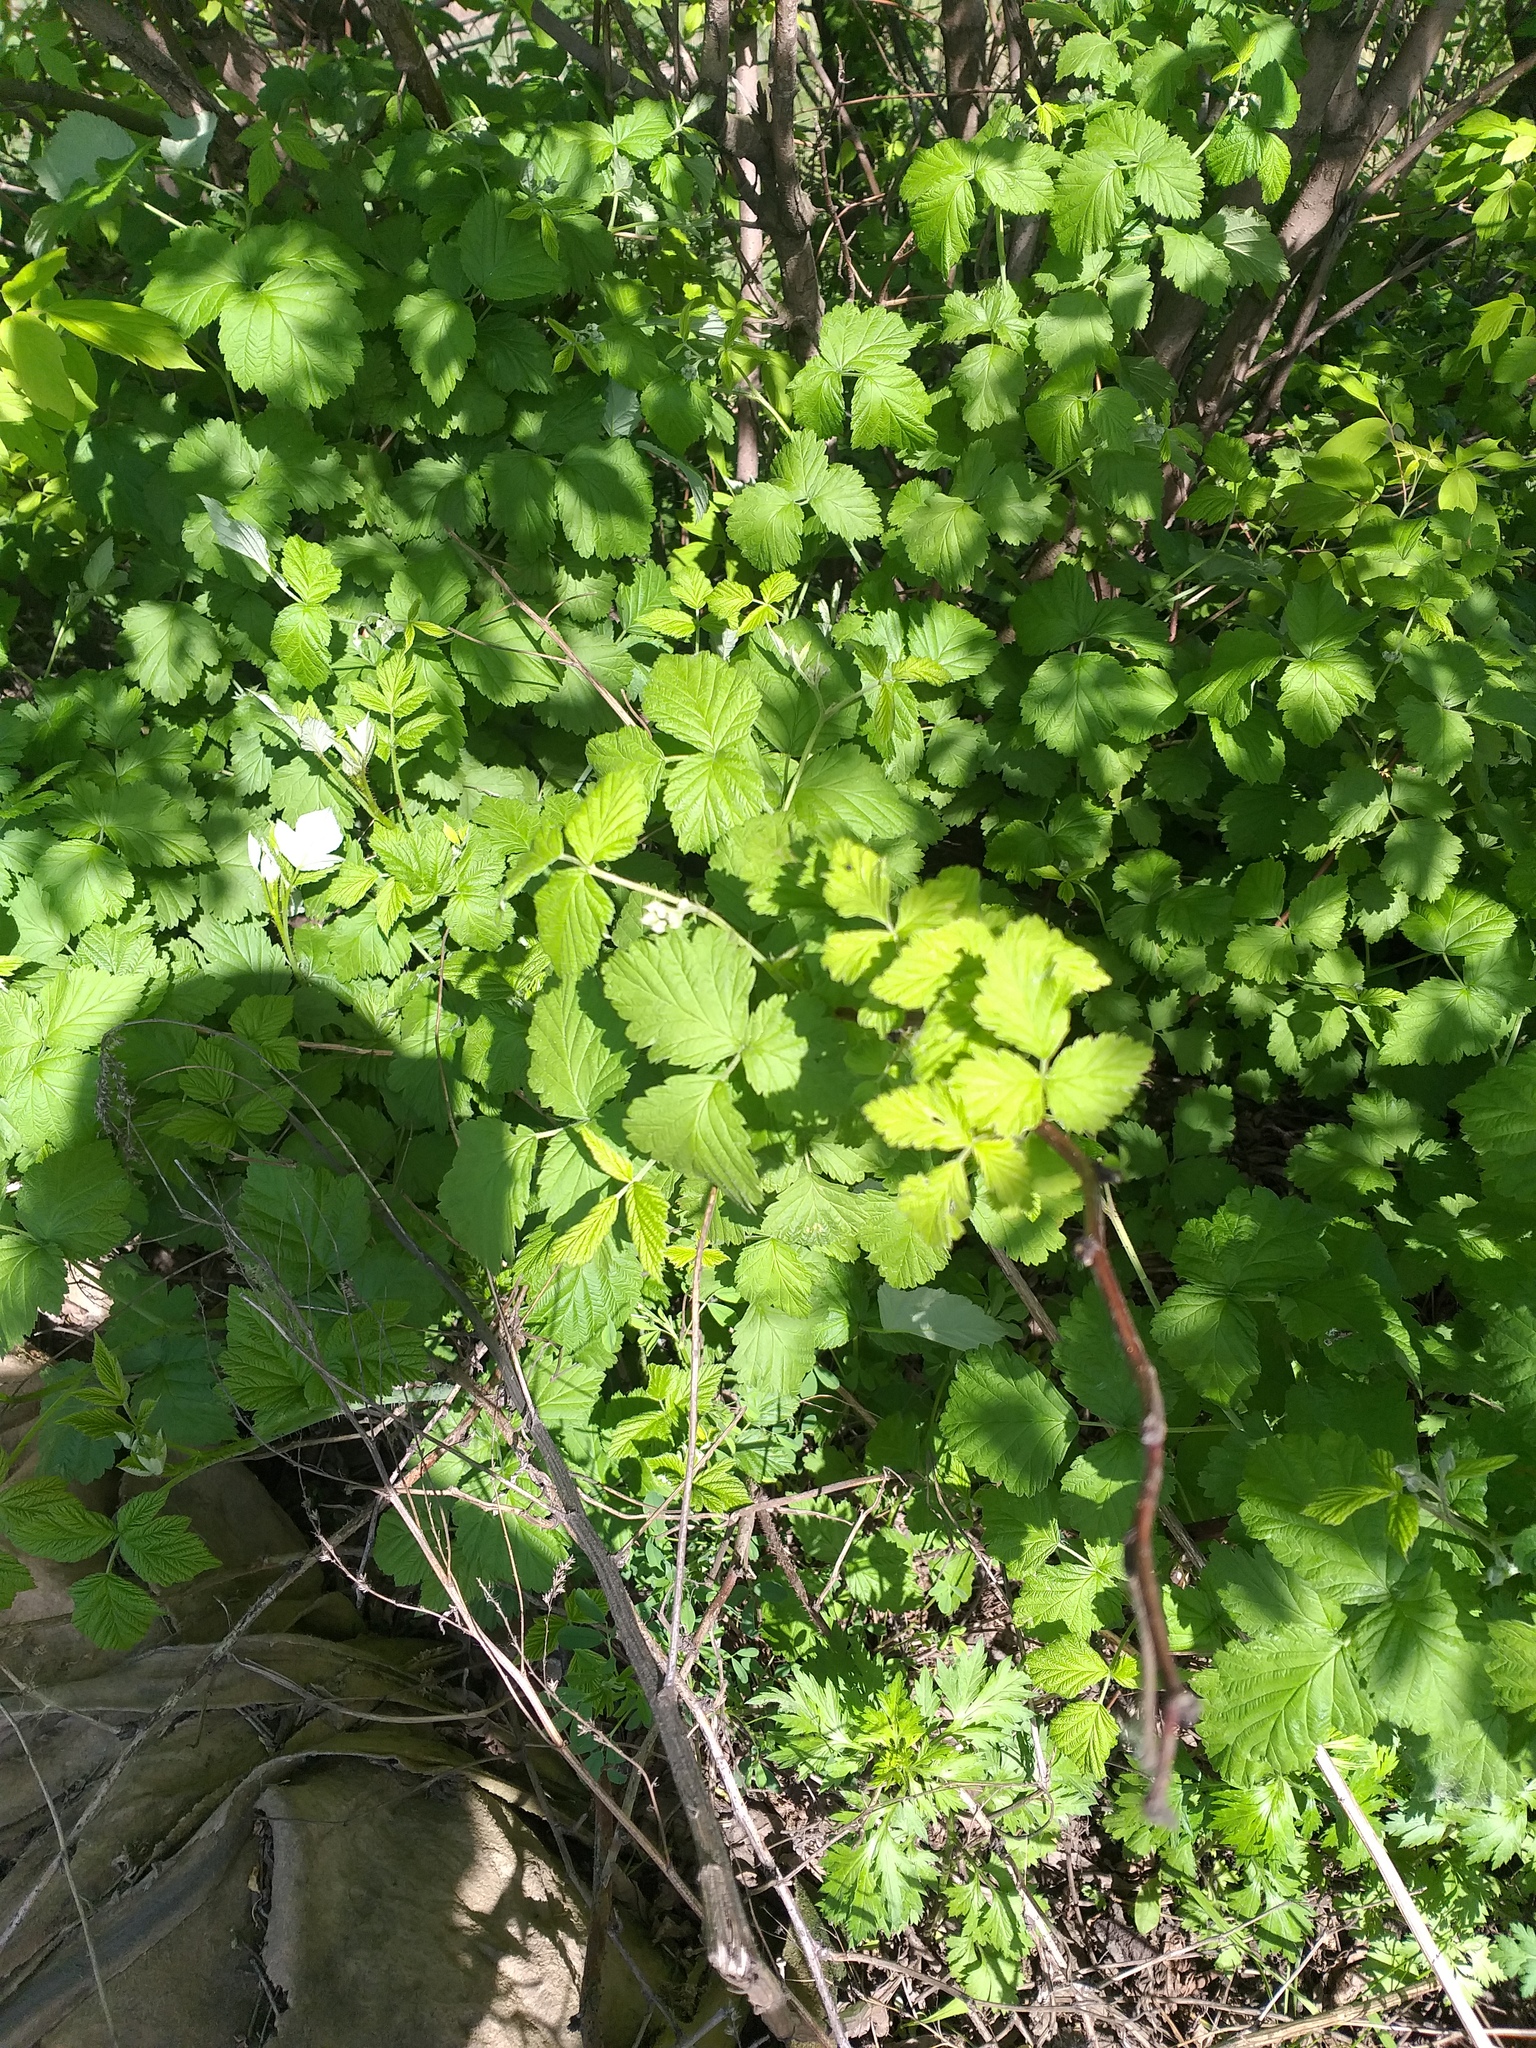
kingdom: Plantae
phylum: Tracheophyta
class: Magnoliopsida
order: Rosales
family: Rosaceae
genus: Rubus
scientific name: Rubus idaeus
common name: Raspberry
